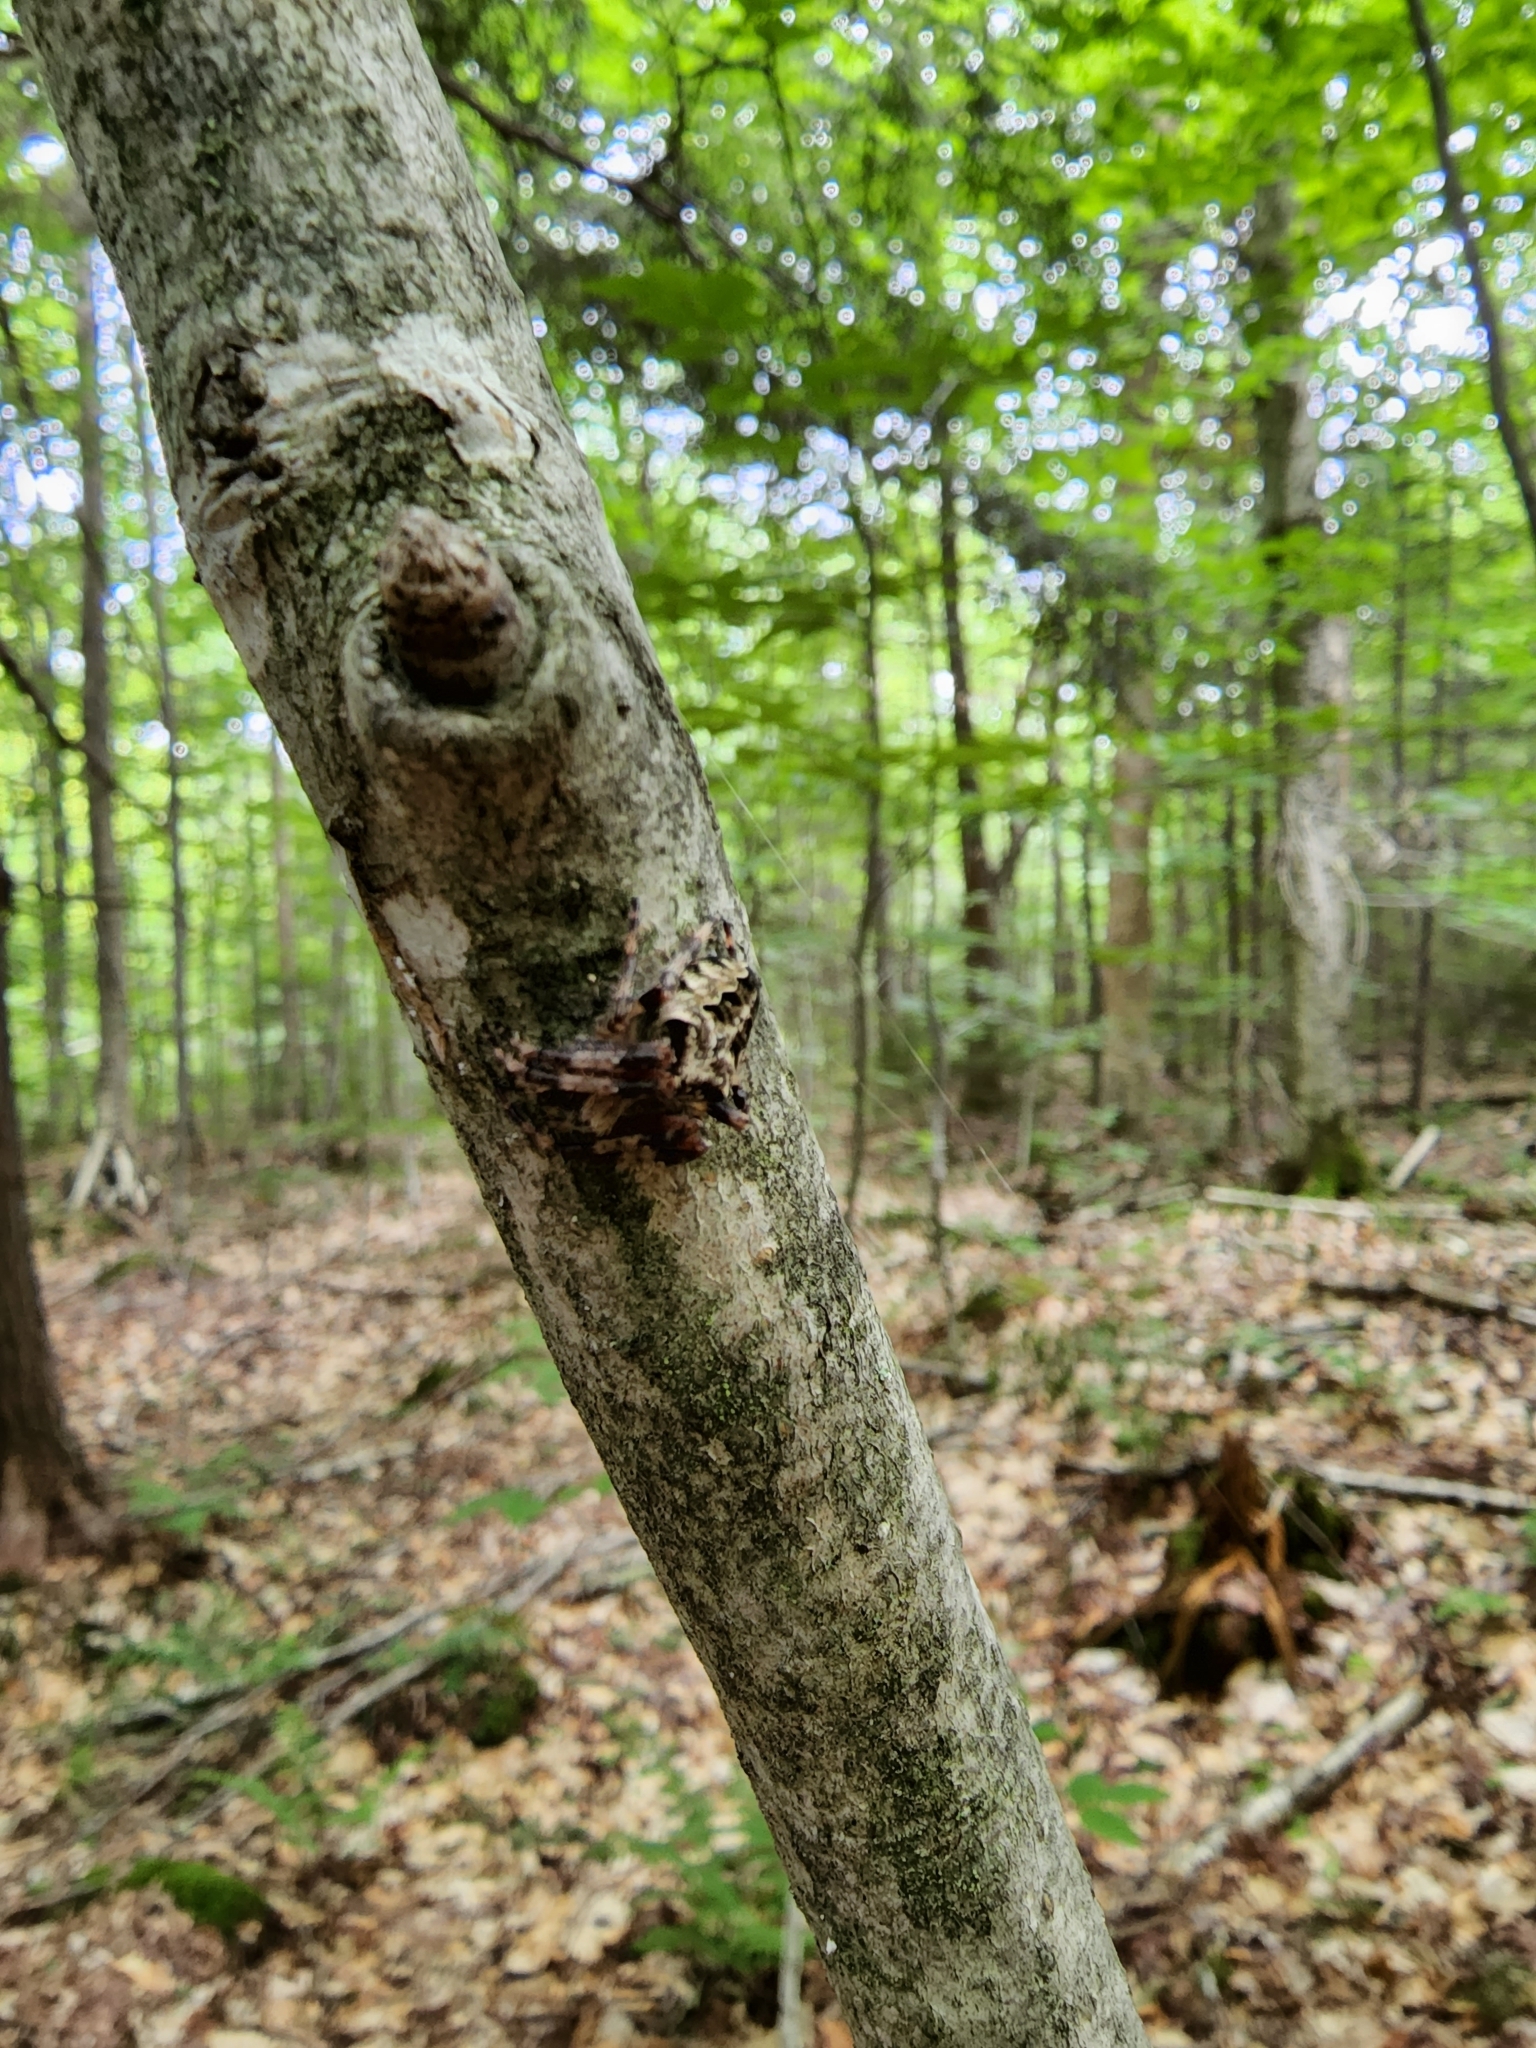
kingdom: Animalia
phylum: Arthropoda
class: Arachnida
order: Araneae
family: Araneidae
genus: Araneus
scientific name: Araneus nordmanni
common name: Nordmann's orbweaver
